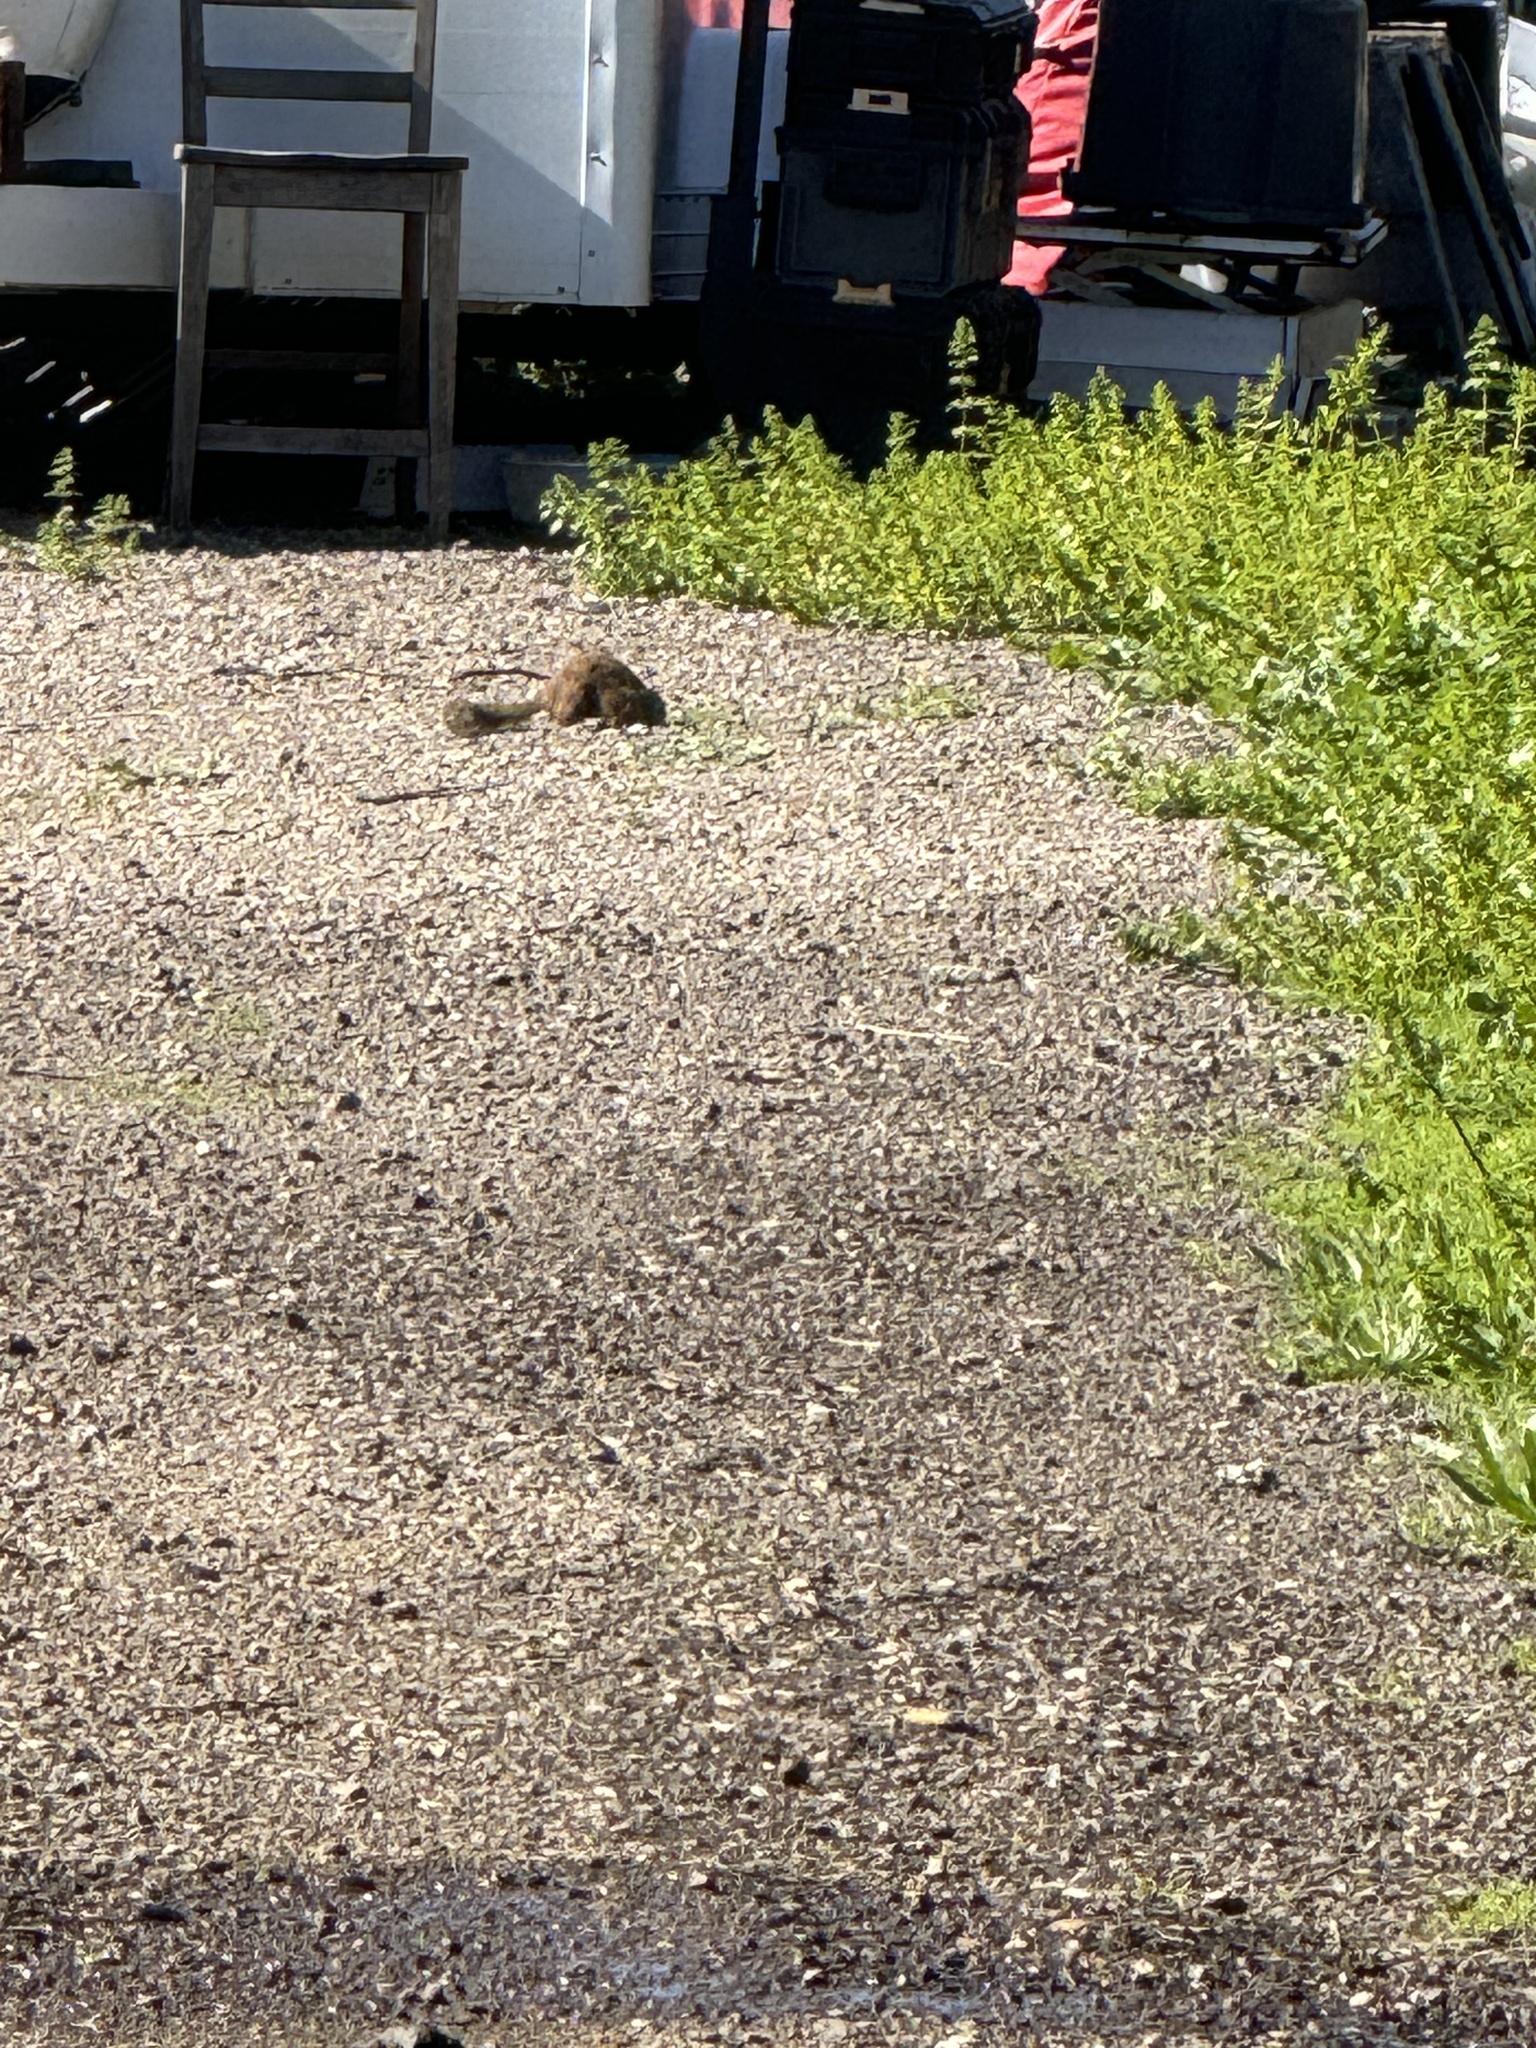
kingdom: Animalia
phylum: Chordata
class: Mammalia
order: Rodentia
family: Sciuridae
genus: Otospermophilus
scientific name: Otospermophilus beecheyi
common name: California ground squirrel
